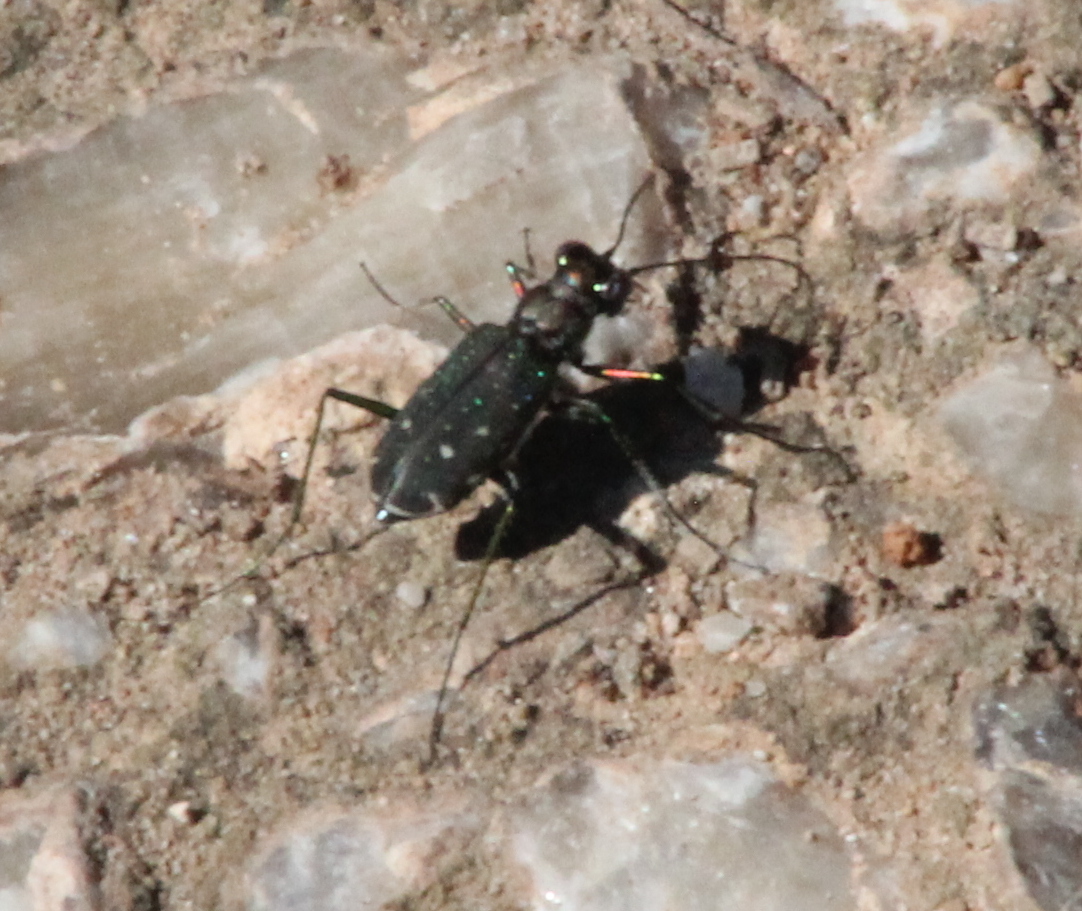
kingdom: Animalia
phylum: Arthropoda
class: Insecta
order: Coleoptera
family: Carabidae
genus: Cicindela
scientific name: Cicindela punctulata
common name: Punctured tiger beetle
